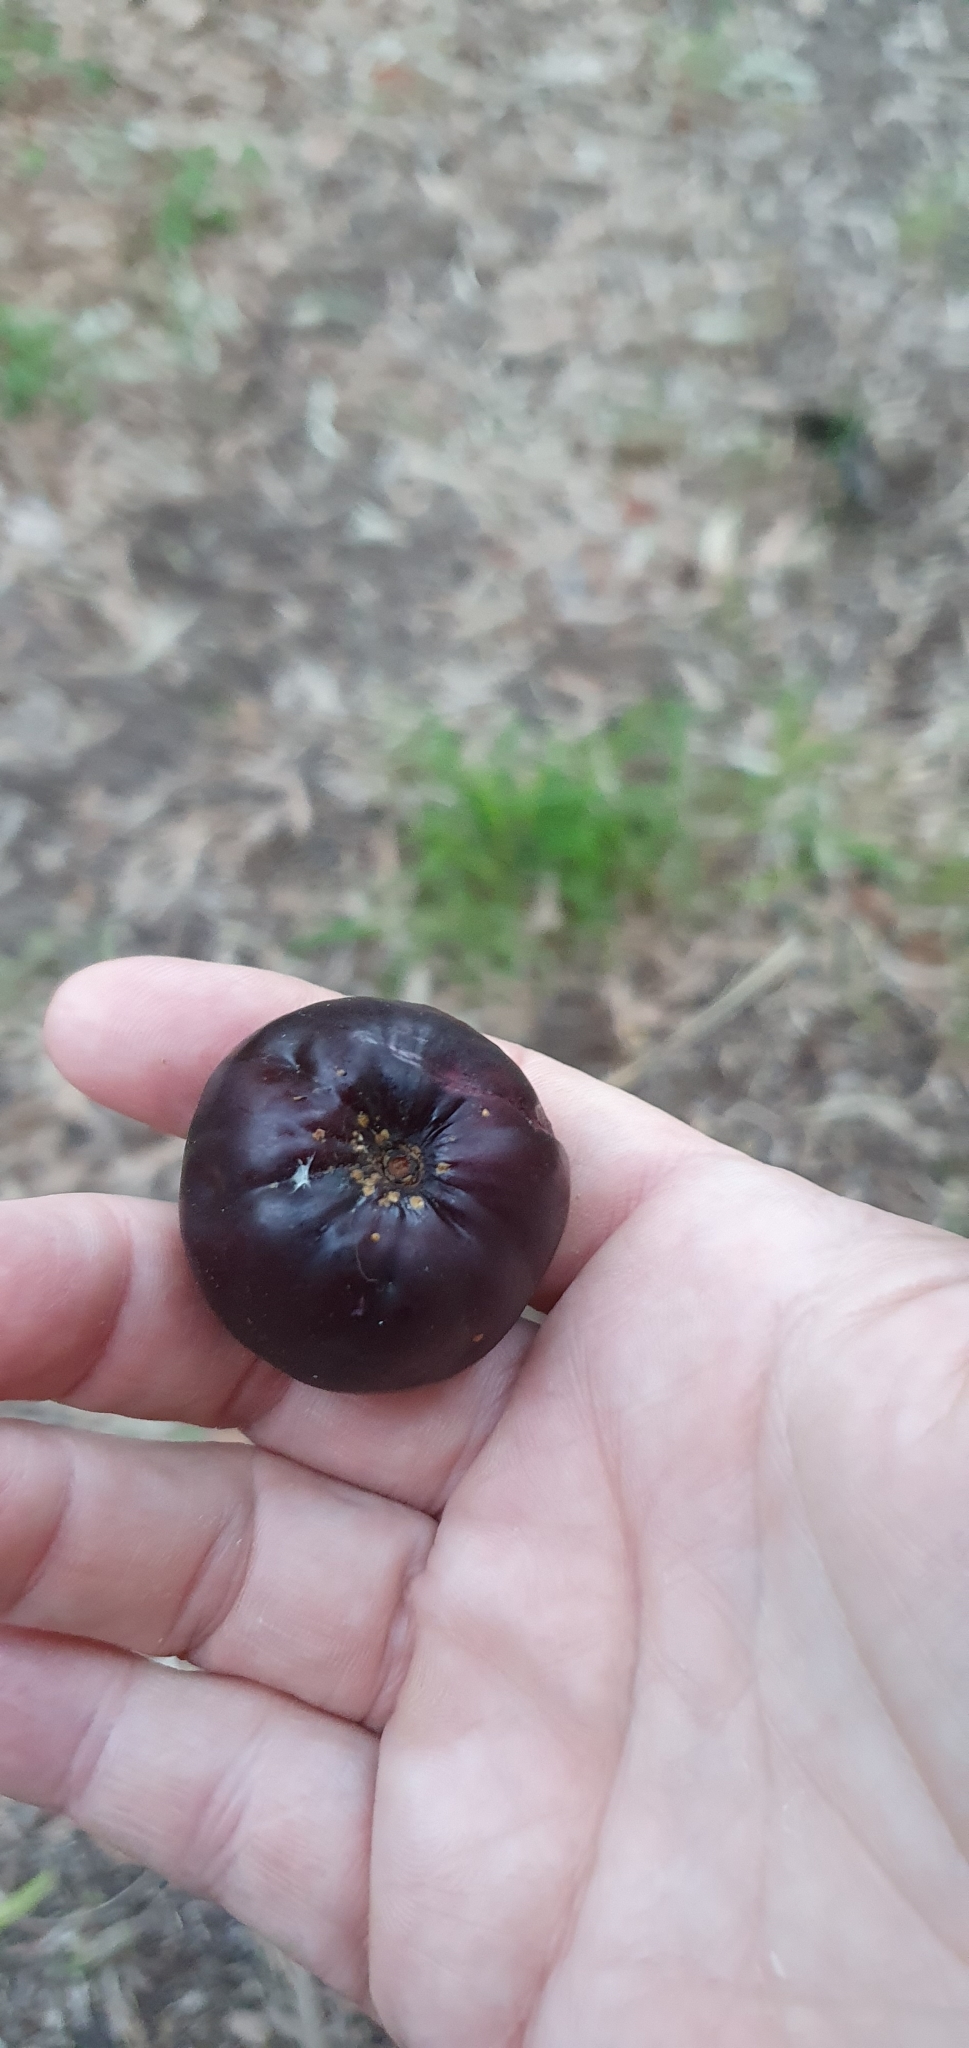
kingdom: Plantae
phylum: Tracheophyta
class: Magnoliopsida
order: Sapindales
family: Anacardiaceae
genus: Pleiogynium
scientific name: Pleiogynium timoriense
